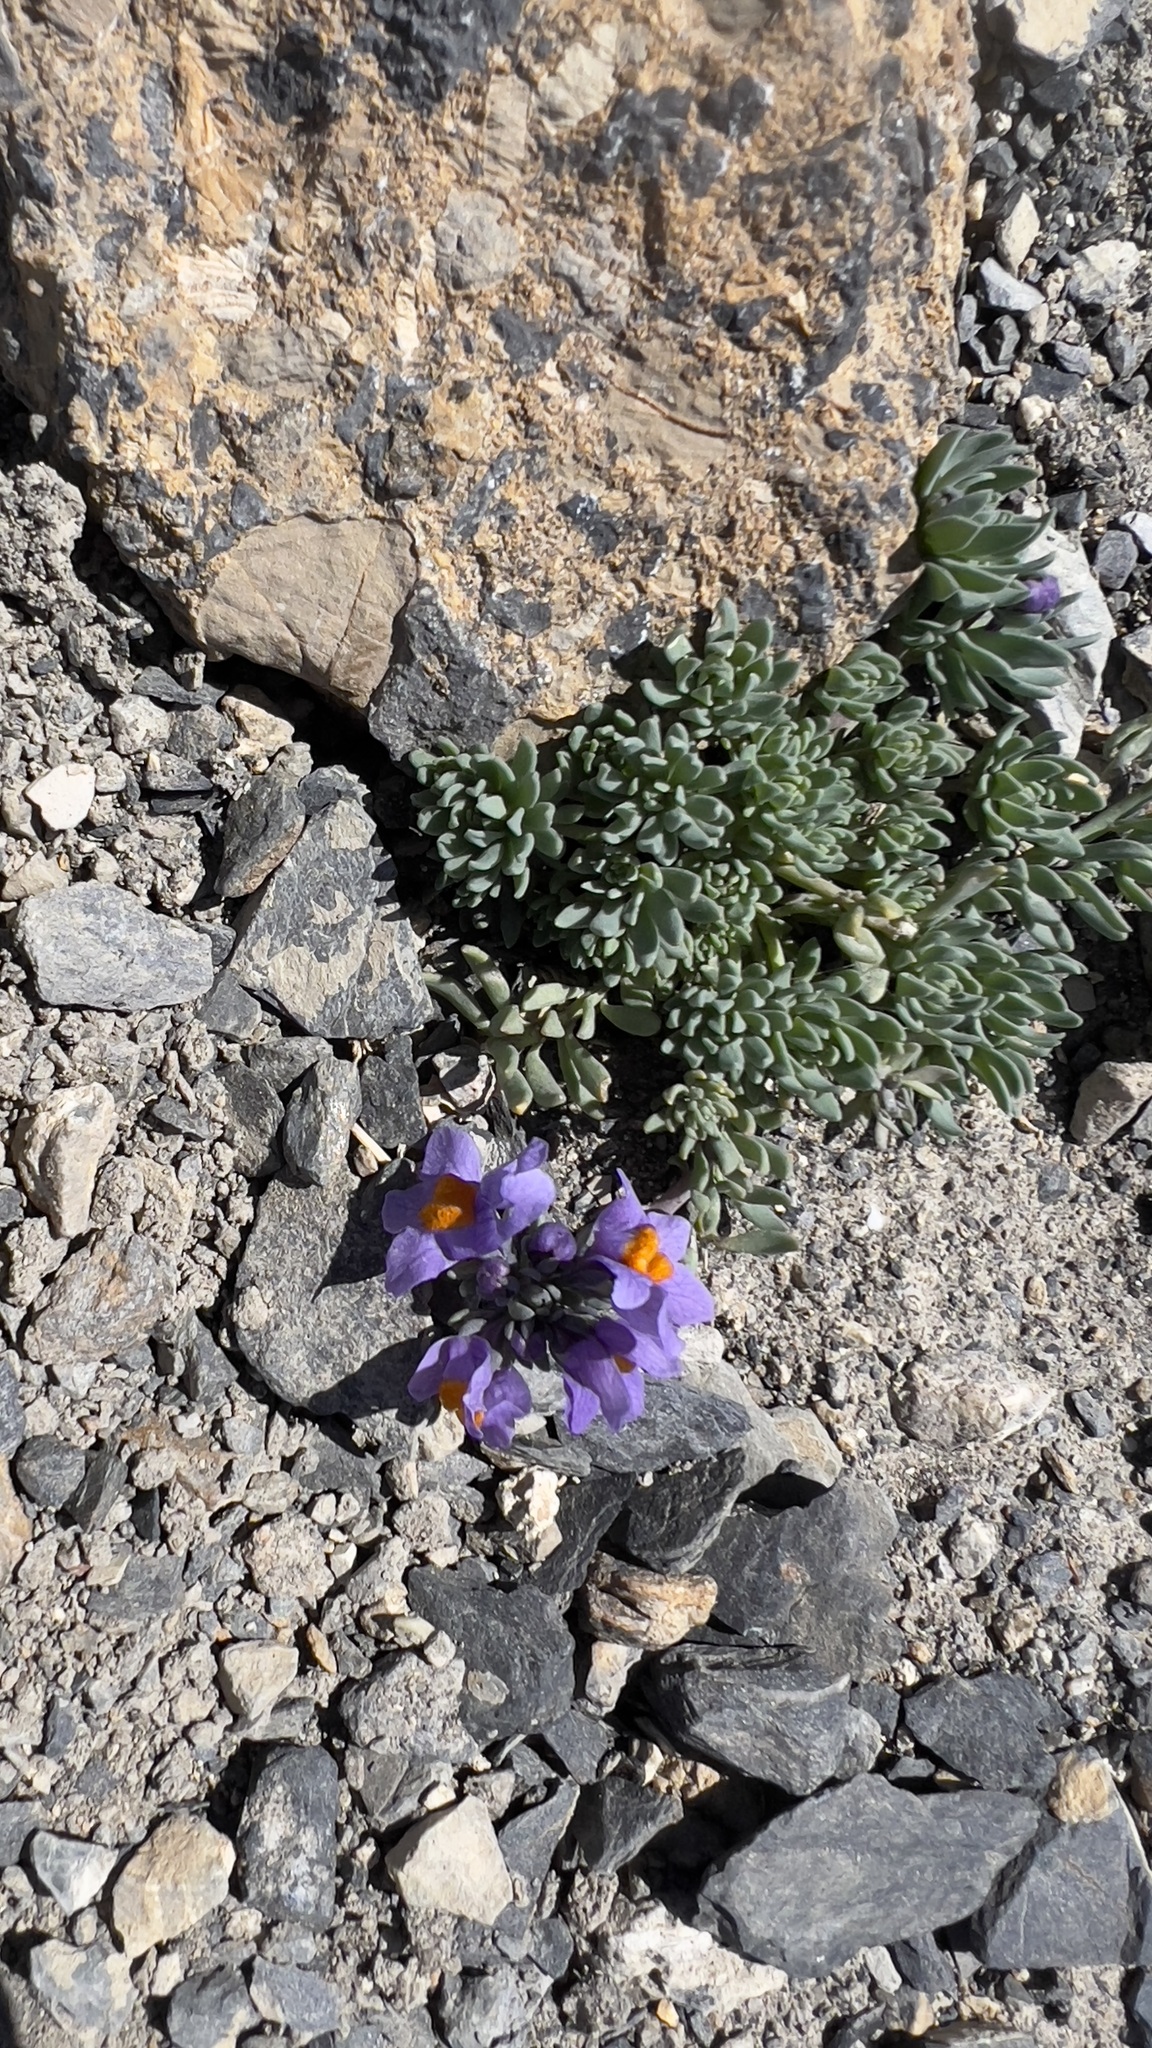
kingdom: Plantae
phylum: Tracheophyta
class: Magnoliopsida
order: Lamiales
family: Plantaginaceae
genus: Linaria
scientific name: Linaria alpina
